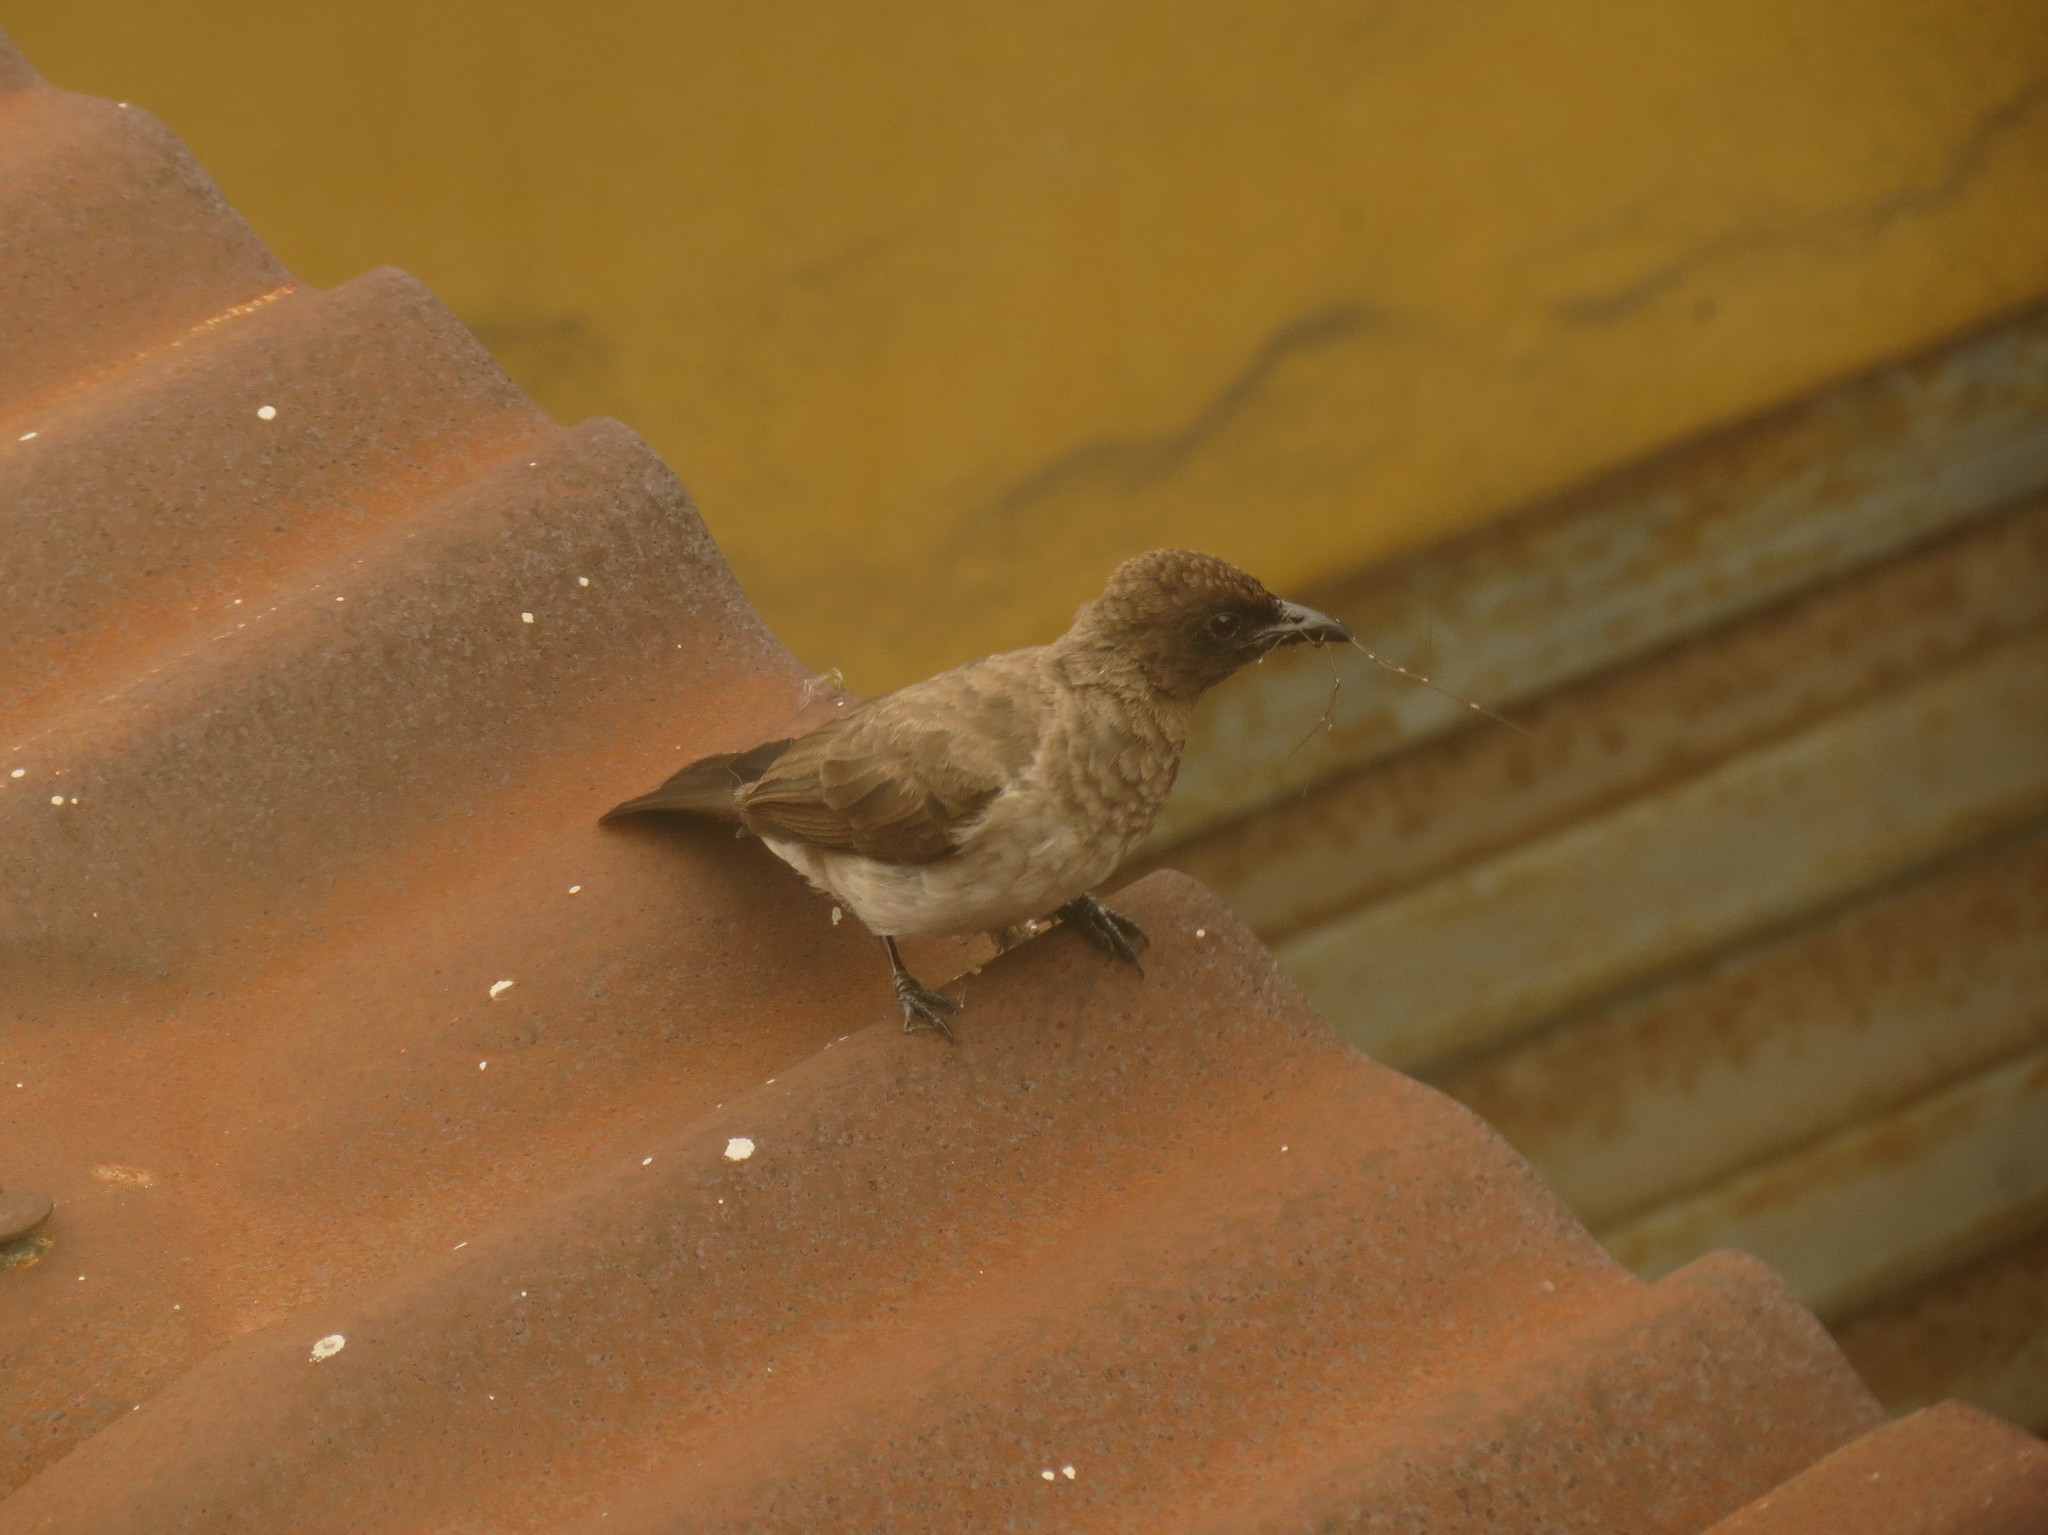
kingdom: Animalia
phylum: Chordata
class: Aves
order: Passeriformes
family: Pycnonotidae
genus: Pycnonotus
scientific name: Pycnonotus barbatus
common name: Common bulbul
